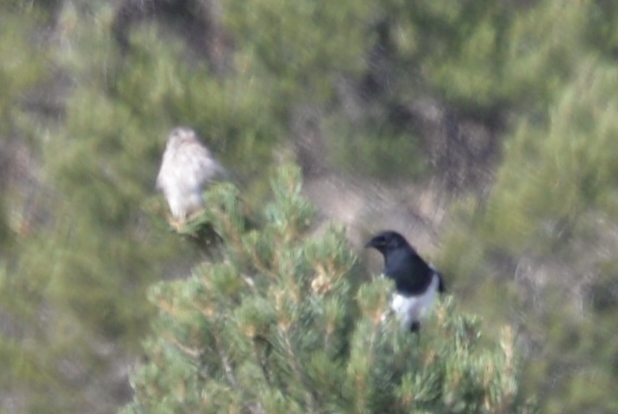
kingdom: Animalia
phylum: Chordata
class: Aves
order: Passeriformes
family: Corvidae
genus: Pica
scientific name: Pica hudsonia
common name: Black-billed magpie
